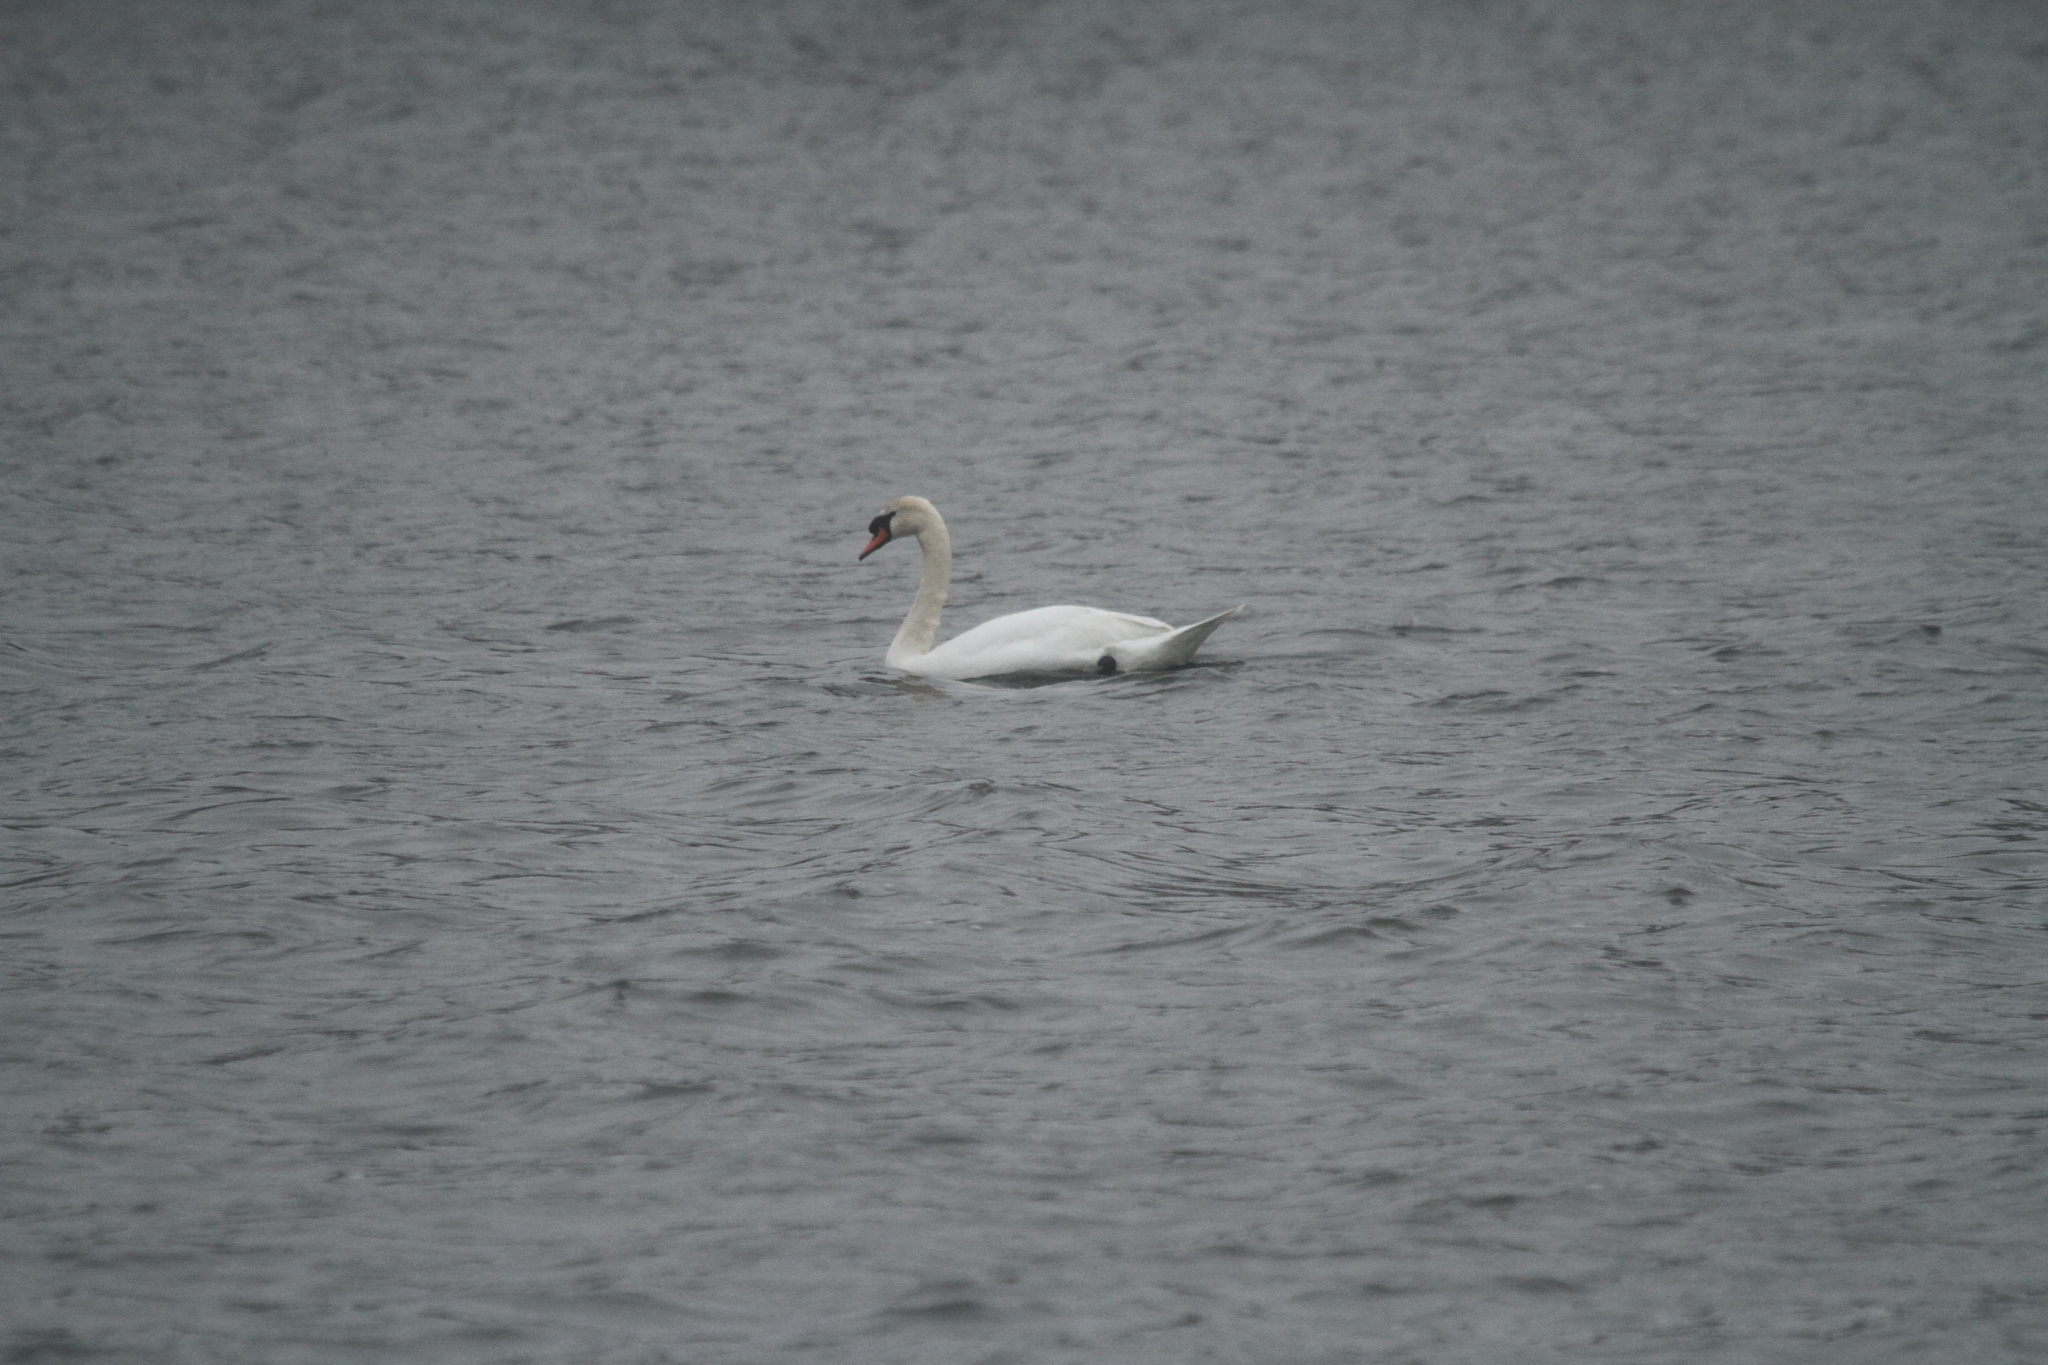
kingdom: Animalia
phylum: Chordata
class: Aves
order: Anseriformes
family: Anatidae
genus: Cygnus
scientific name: Cygnus olor
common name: Mute swan
